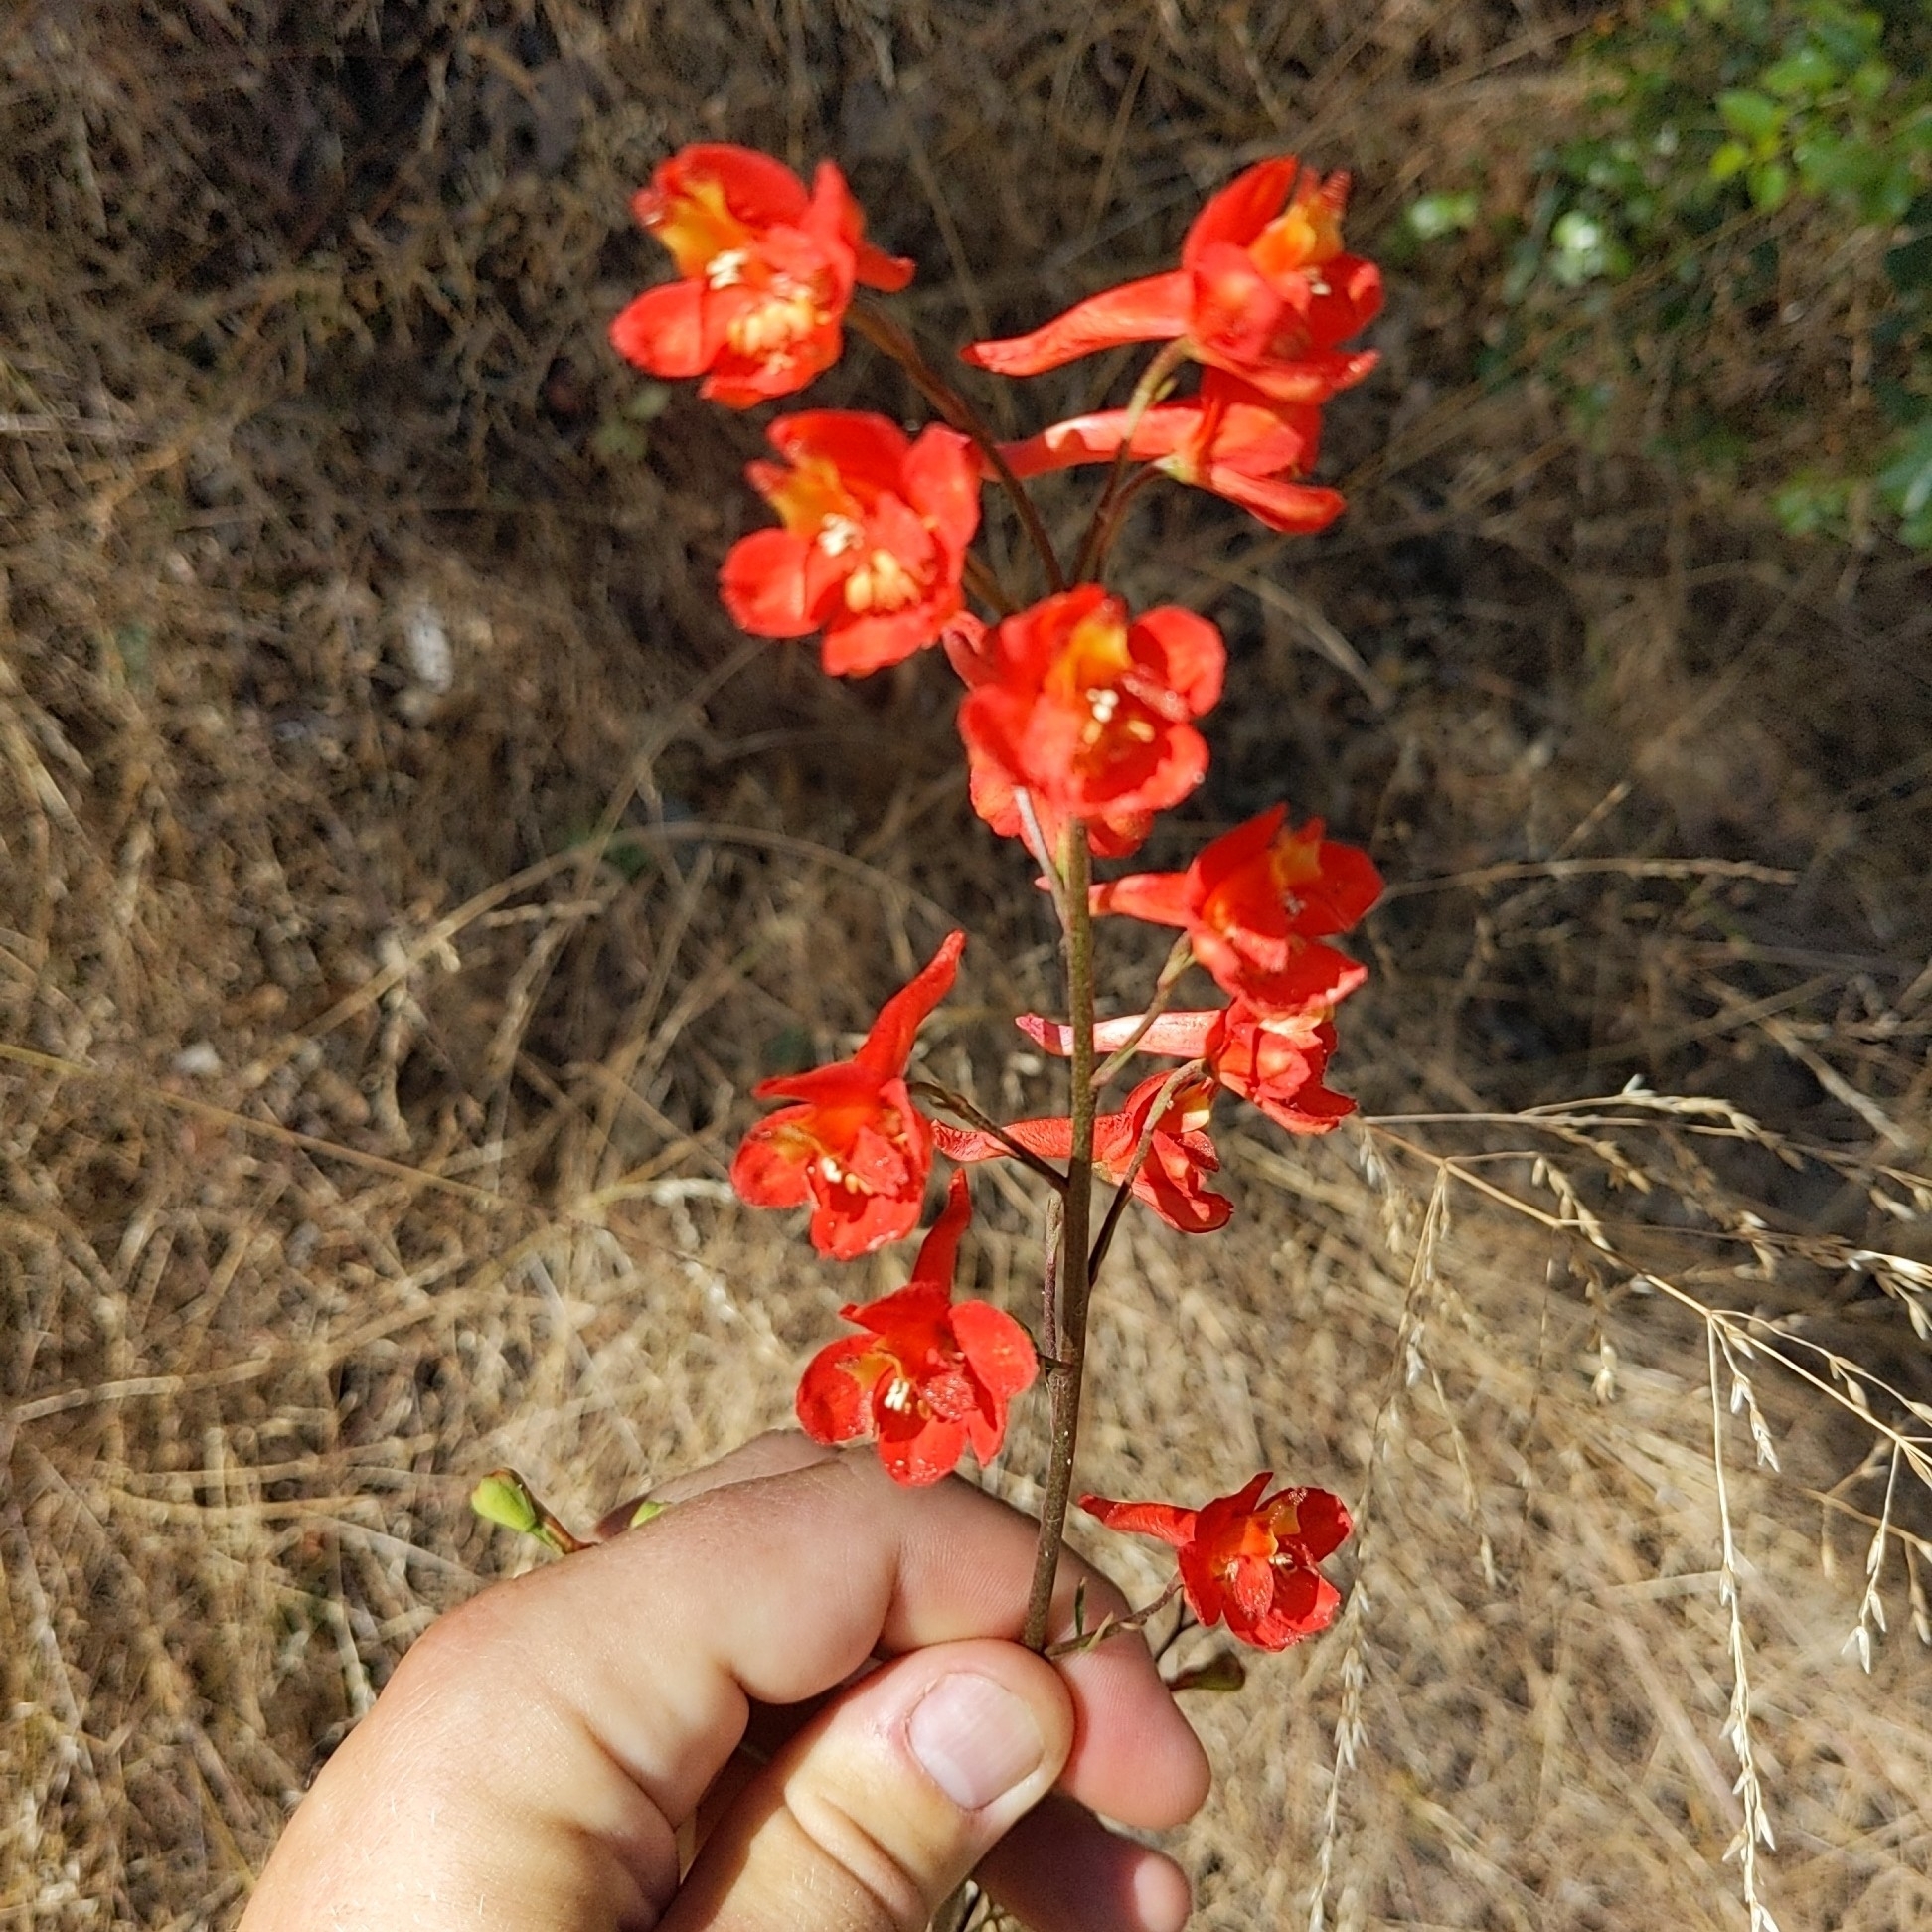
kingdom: Plantae
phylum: Tracheophyta
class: Magnoliopsida
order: Ranunculales
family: Ranunculaceae
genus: Delphinium
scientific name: Delphinium cardinale
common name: Scarlet larkspur
